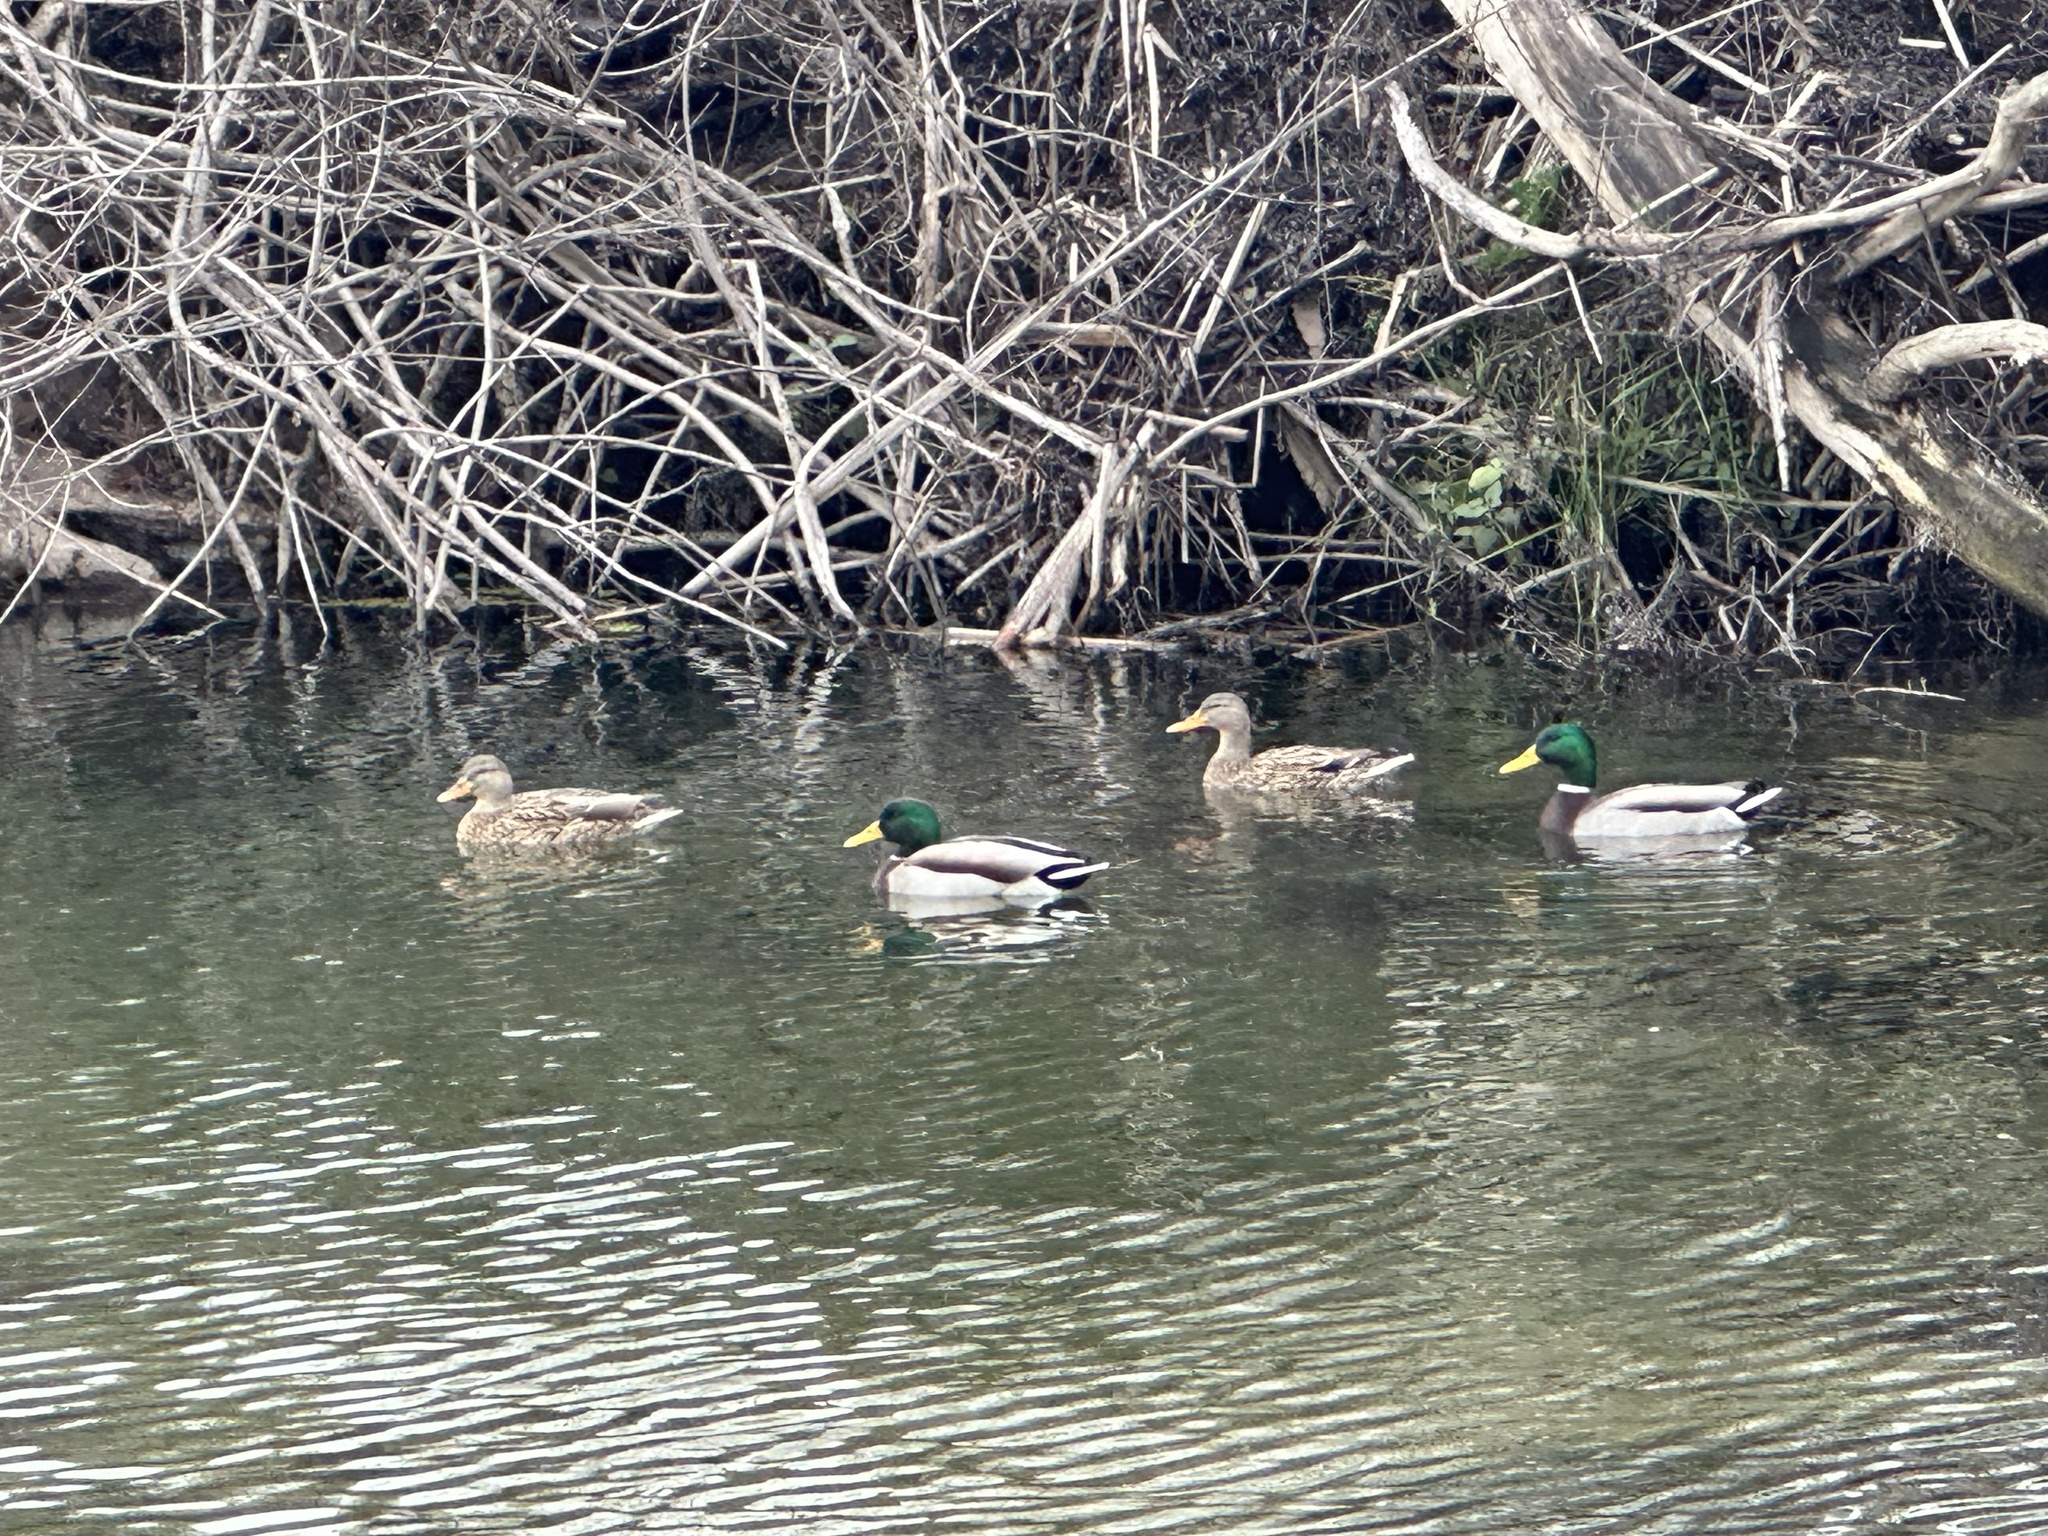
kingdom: Animalia
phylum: Chordata
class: Aves
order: Anseriformes
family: Anatidae
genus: Anas
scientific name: Anas platyrhynchos
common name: Mallard
